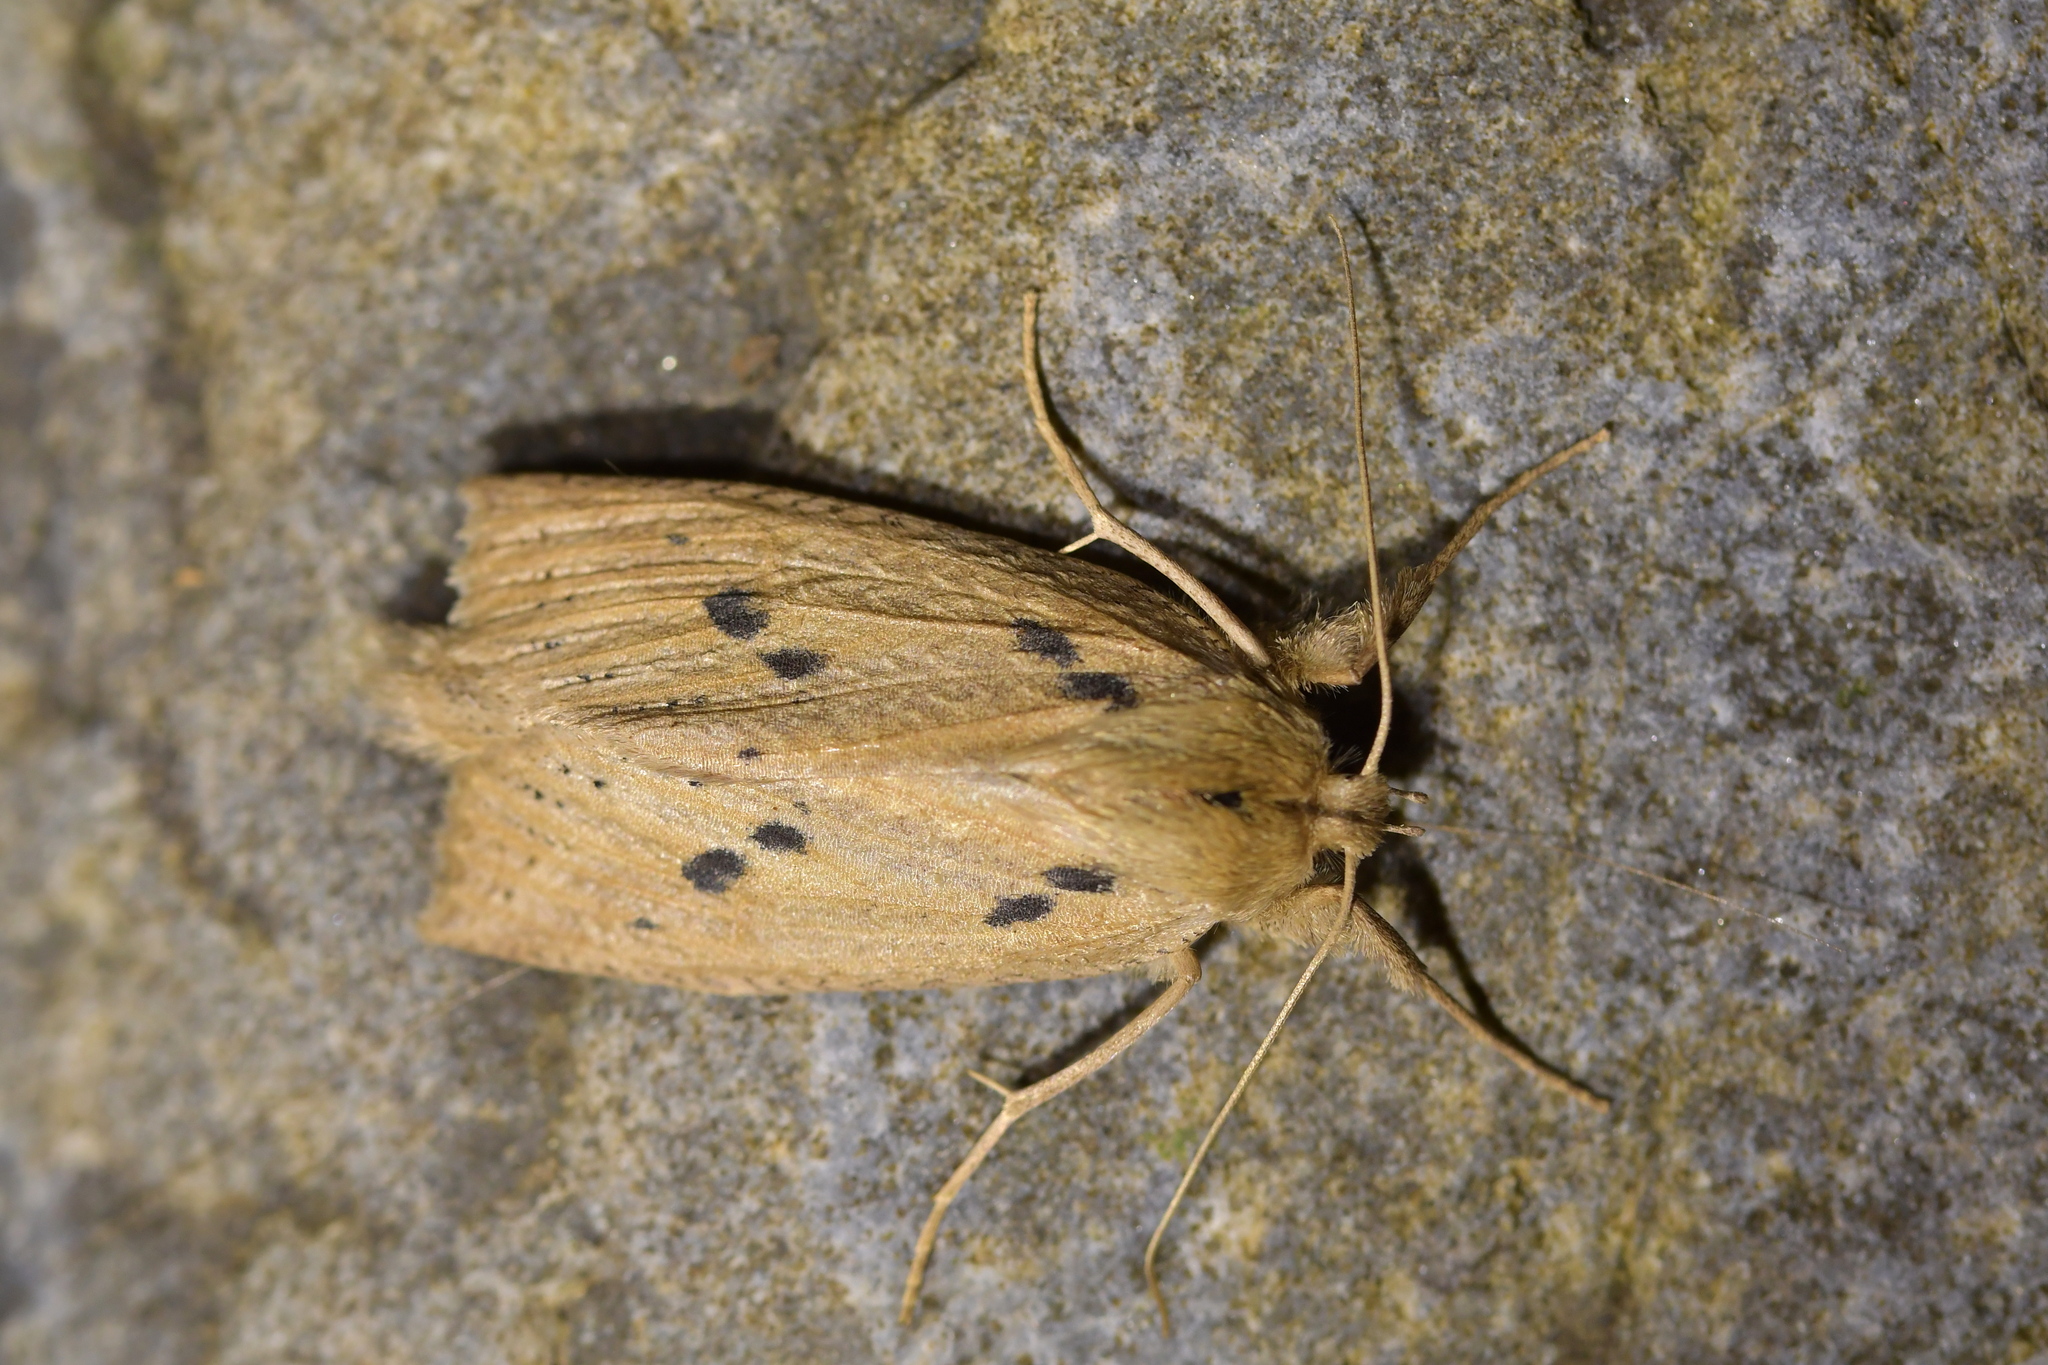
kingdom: Animalia
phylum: Arthropoda
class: Insecta
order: Lepidoptera
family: Geometridae
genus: Declana
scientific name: Declana leptomera
